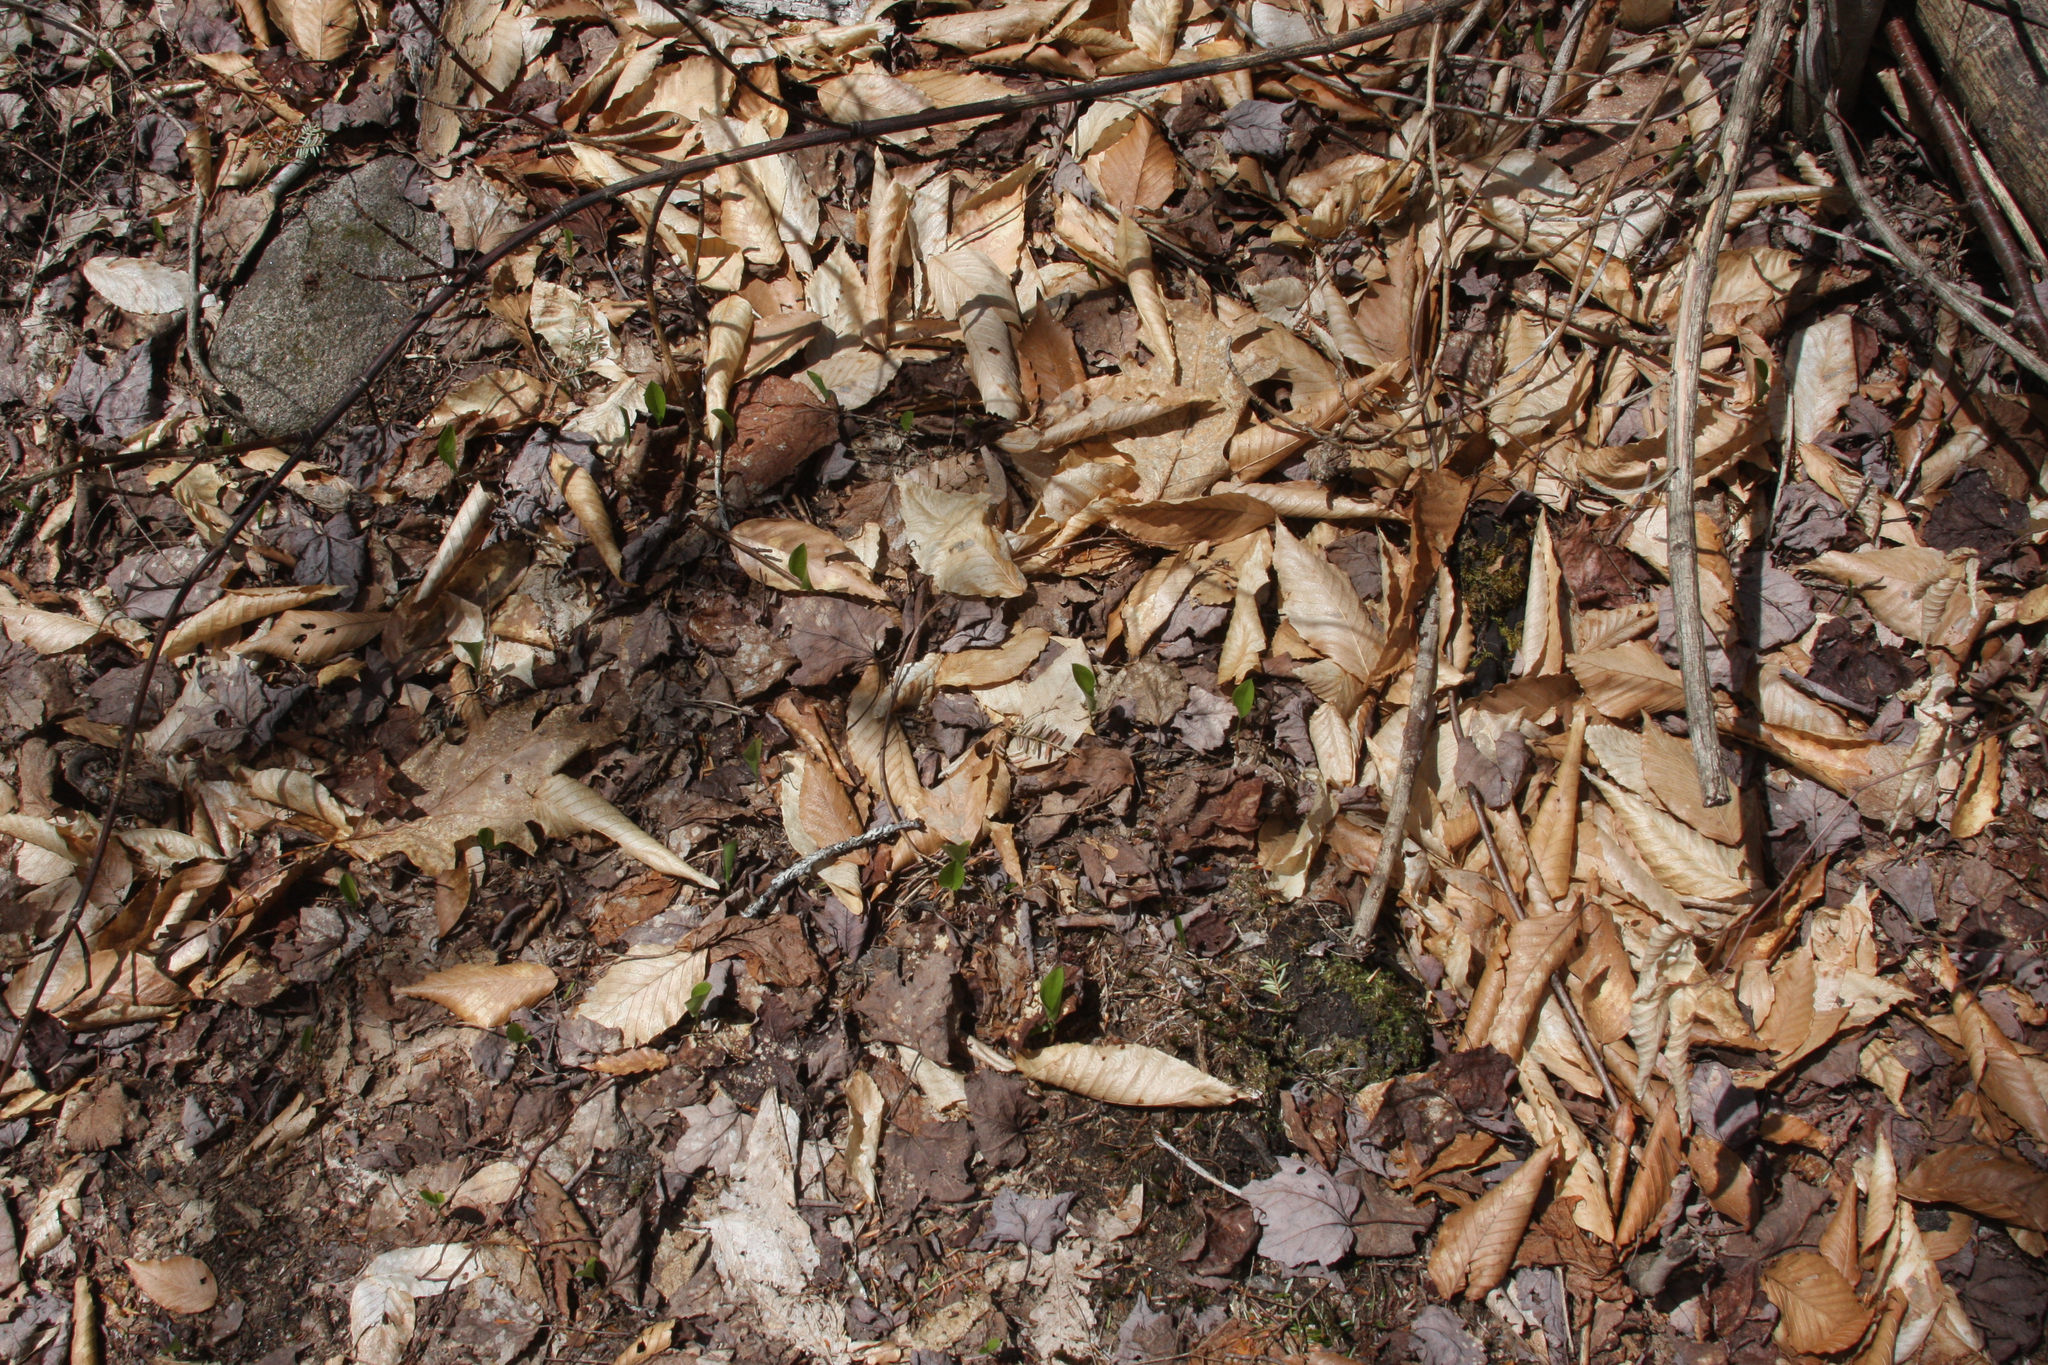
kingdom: Plantae
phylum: Tracheophyta
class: Liliopsida
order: Asparagales
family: Asparagaceae
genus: Maianthemum
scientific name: Maianthemum canadense
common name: False lily-of-the-valley
